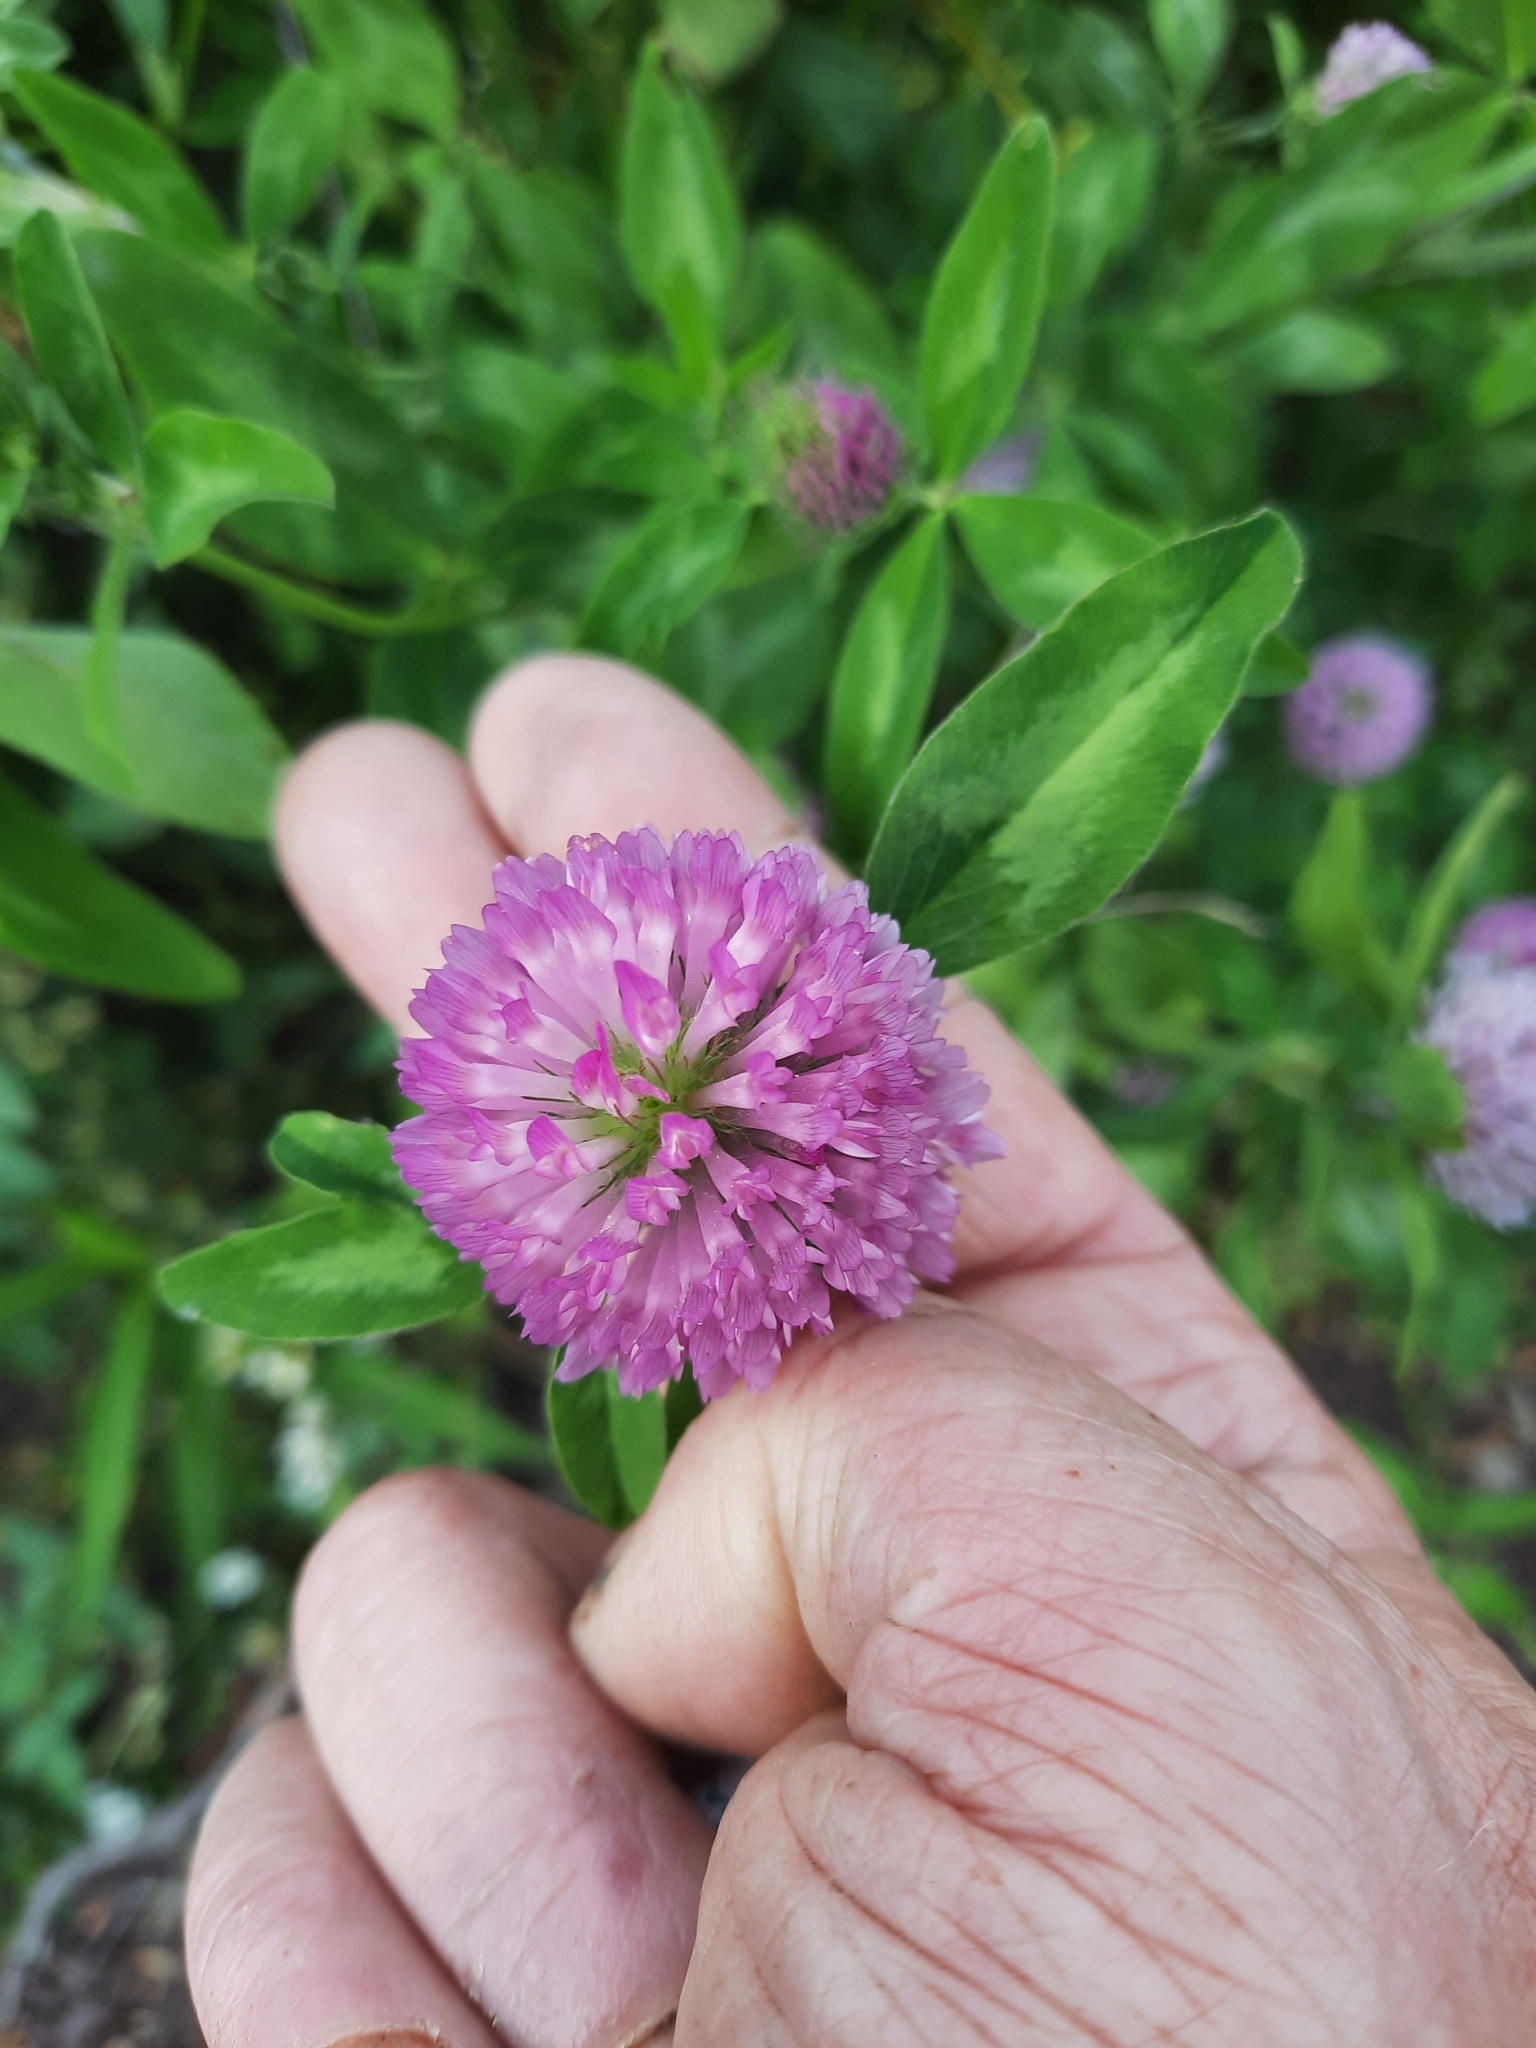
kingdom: Plantae
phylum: Tracheophyta
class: Magnoliopsida
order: Fabales
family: Fabaceae
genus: Trifolium
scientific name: Trifolium pratense
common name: Red clover
